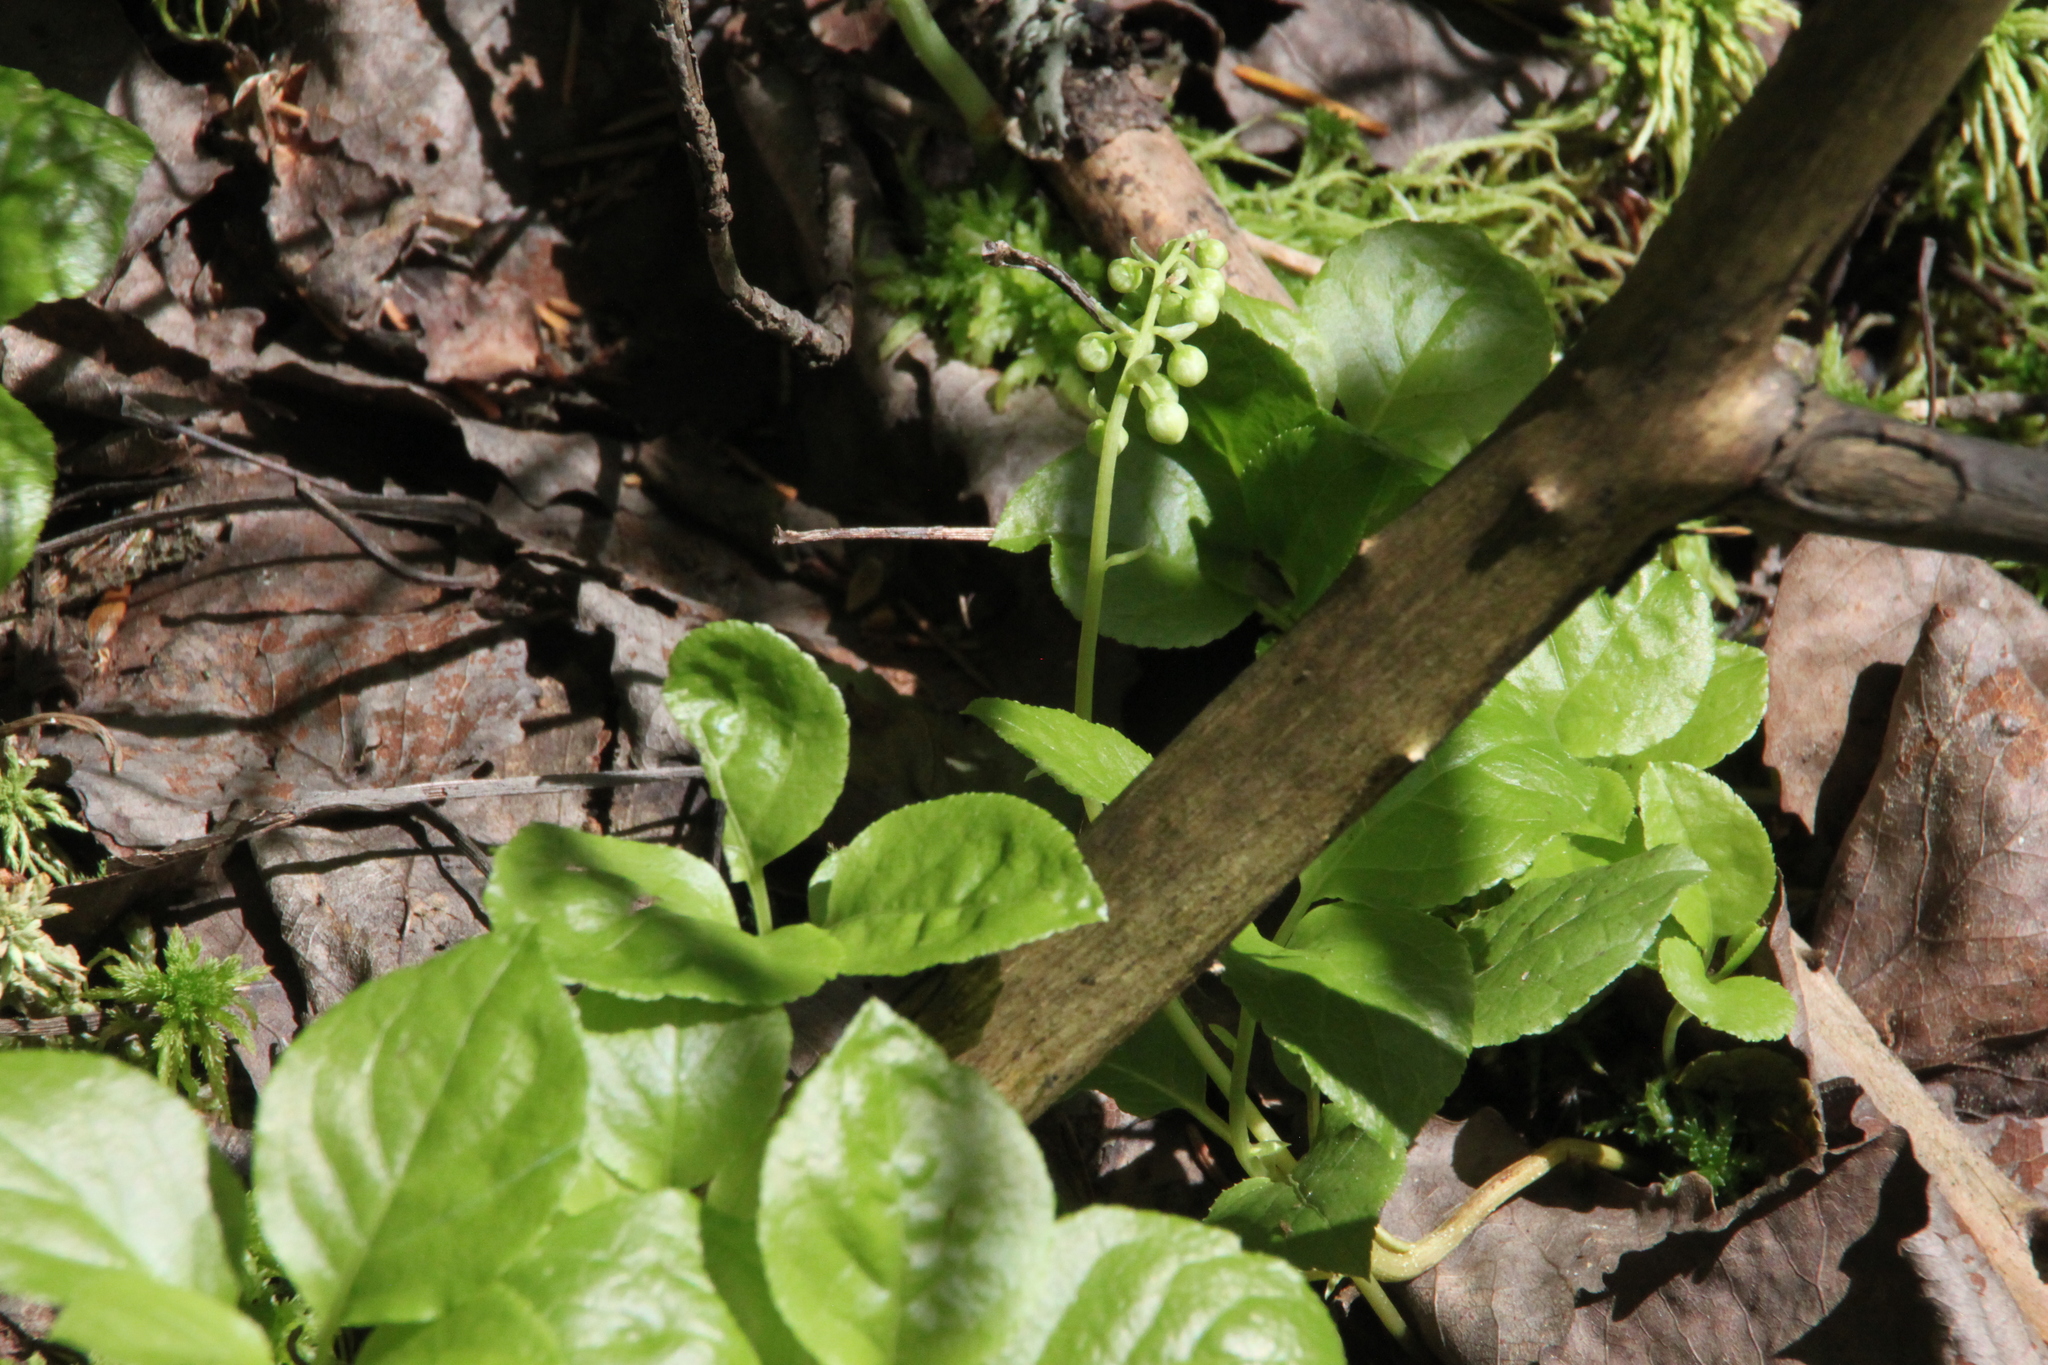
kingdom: Plantae
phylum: Tracheophyta
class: Magnoliopsida
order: Ericales
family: Ericaceae
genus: Orthilia
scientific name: Orthilia secunda
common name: One-sided orthilia
